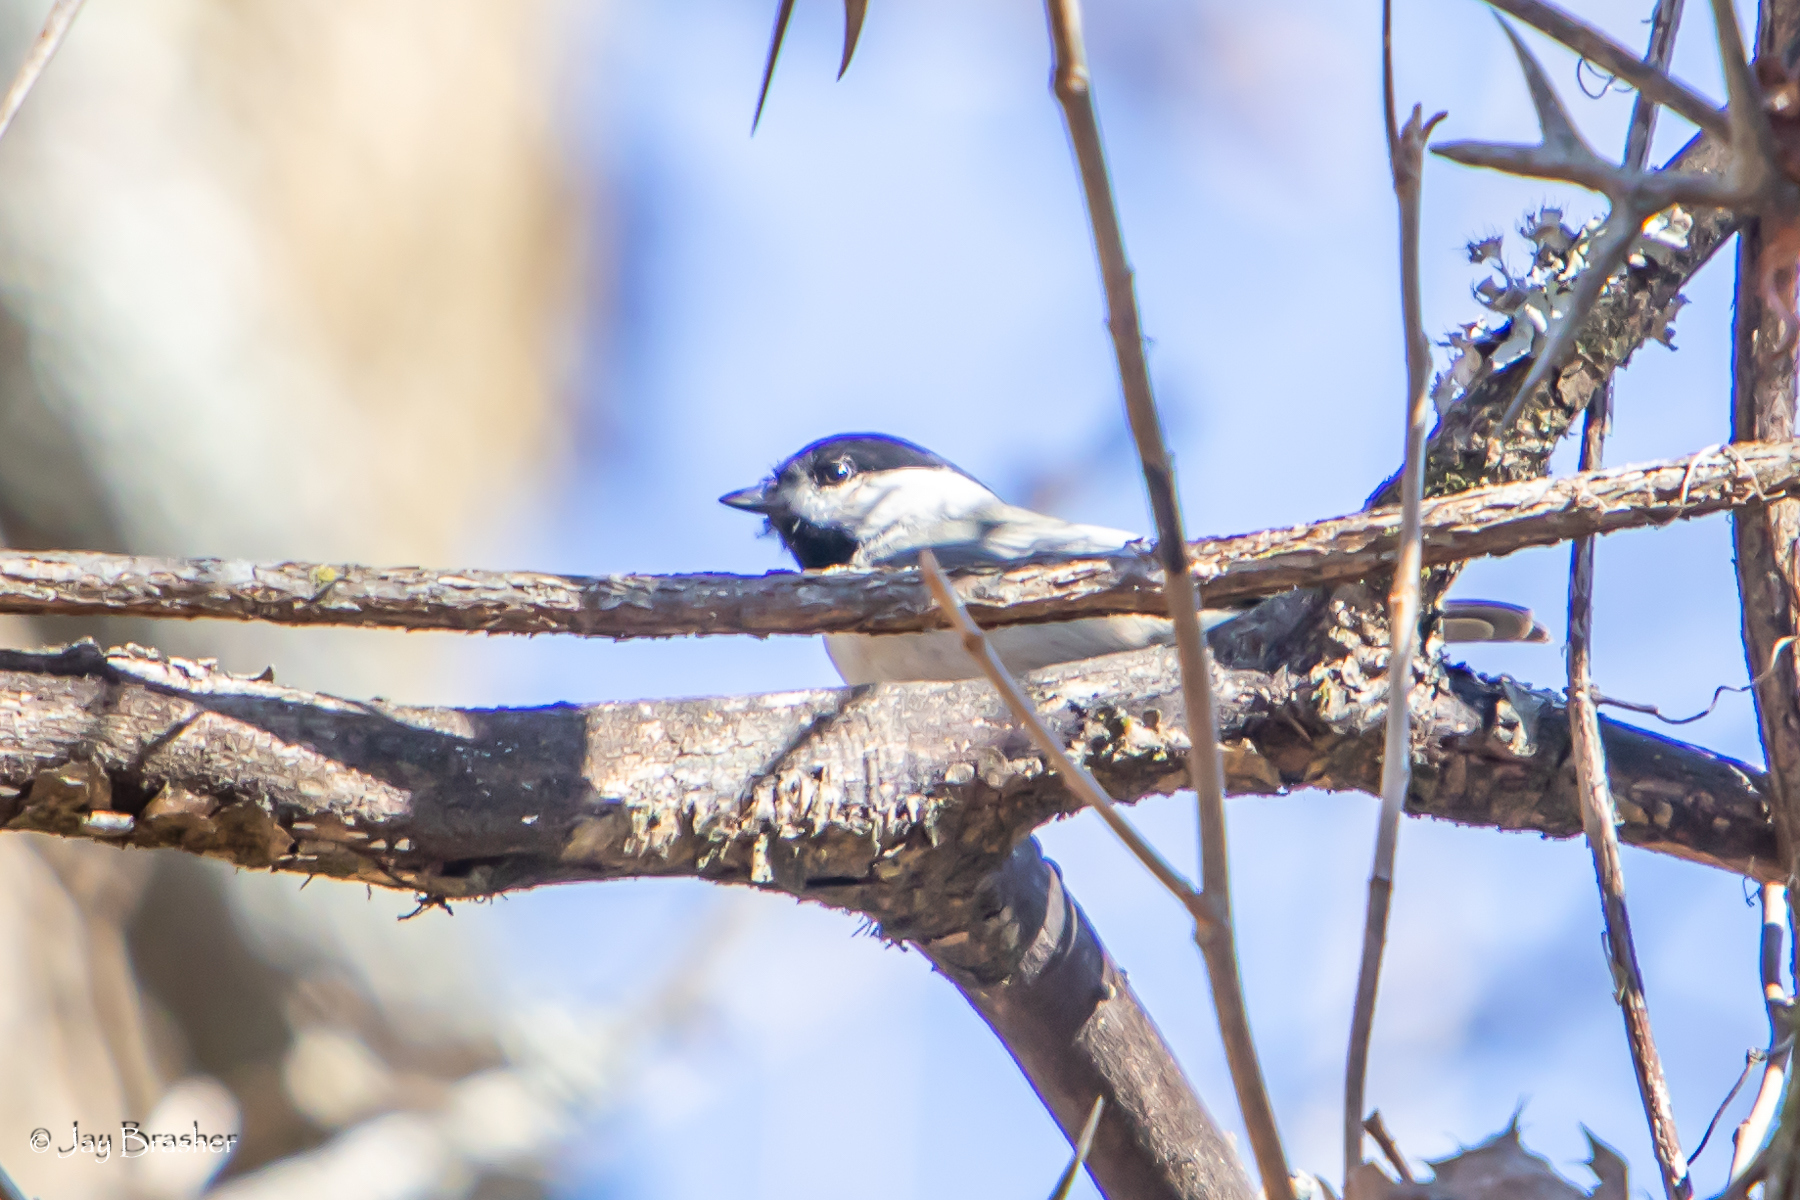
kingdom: Animalia
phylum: Chordata
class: Aves
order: Passeriformes
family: Paridae
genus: Poecile
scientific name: Poecile carolinensis
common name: Carolina chickadee
